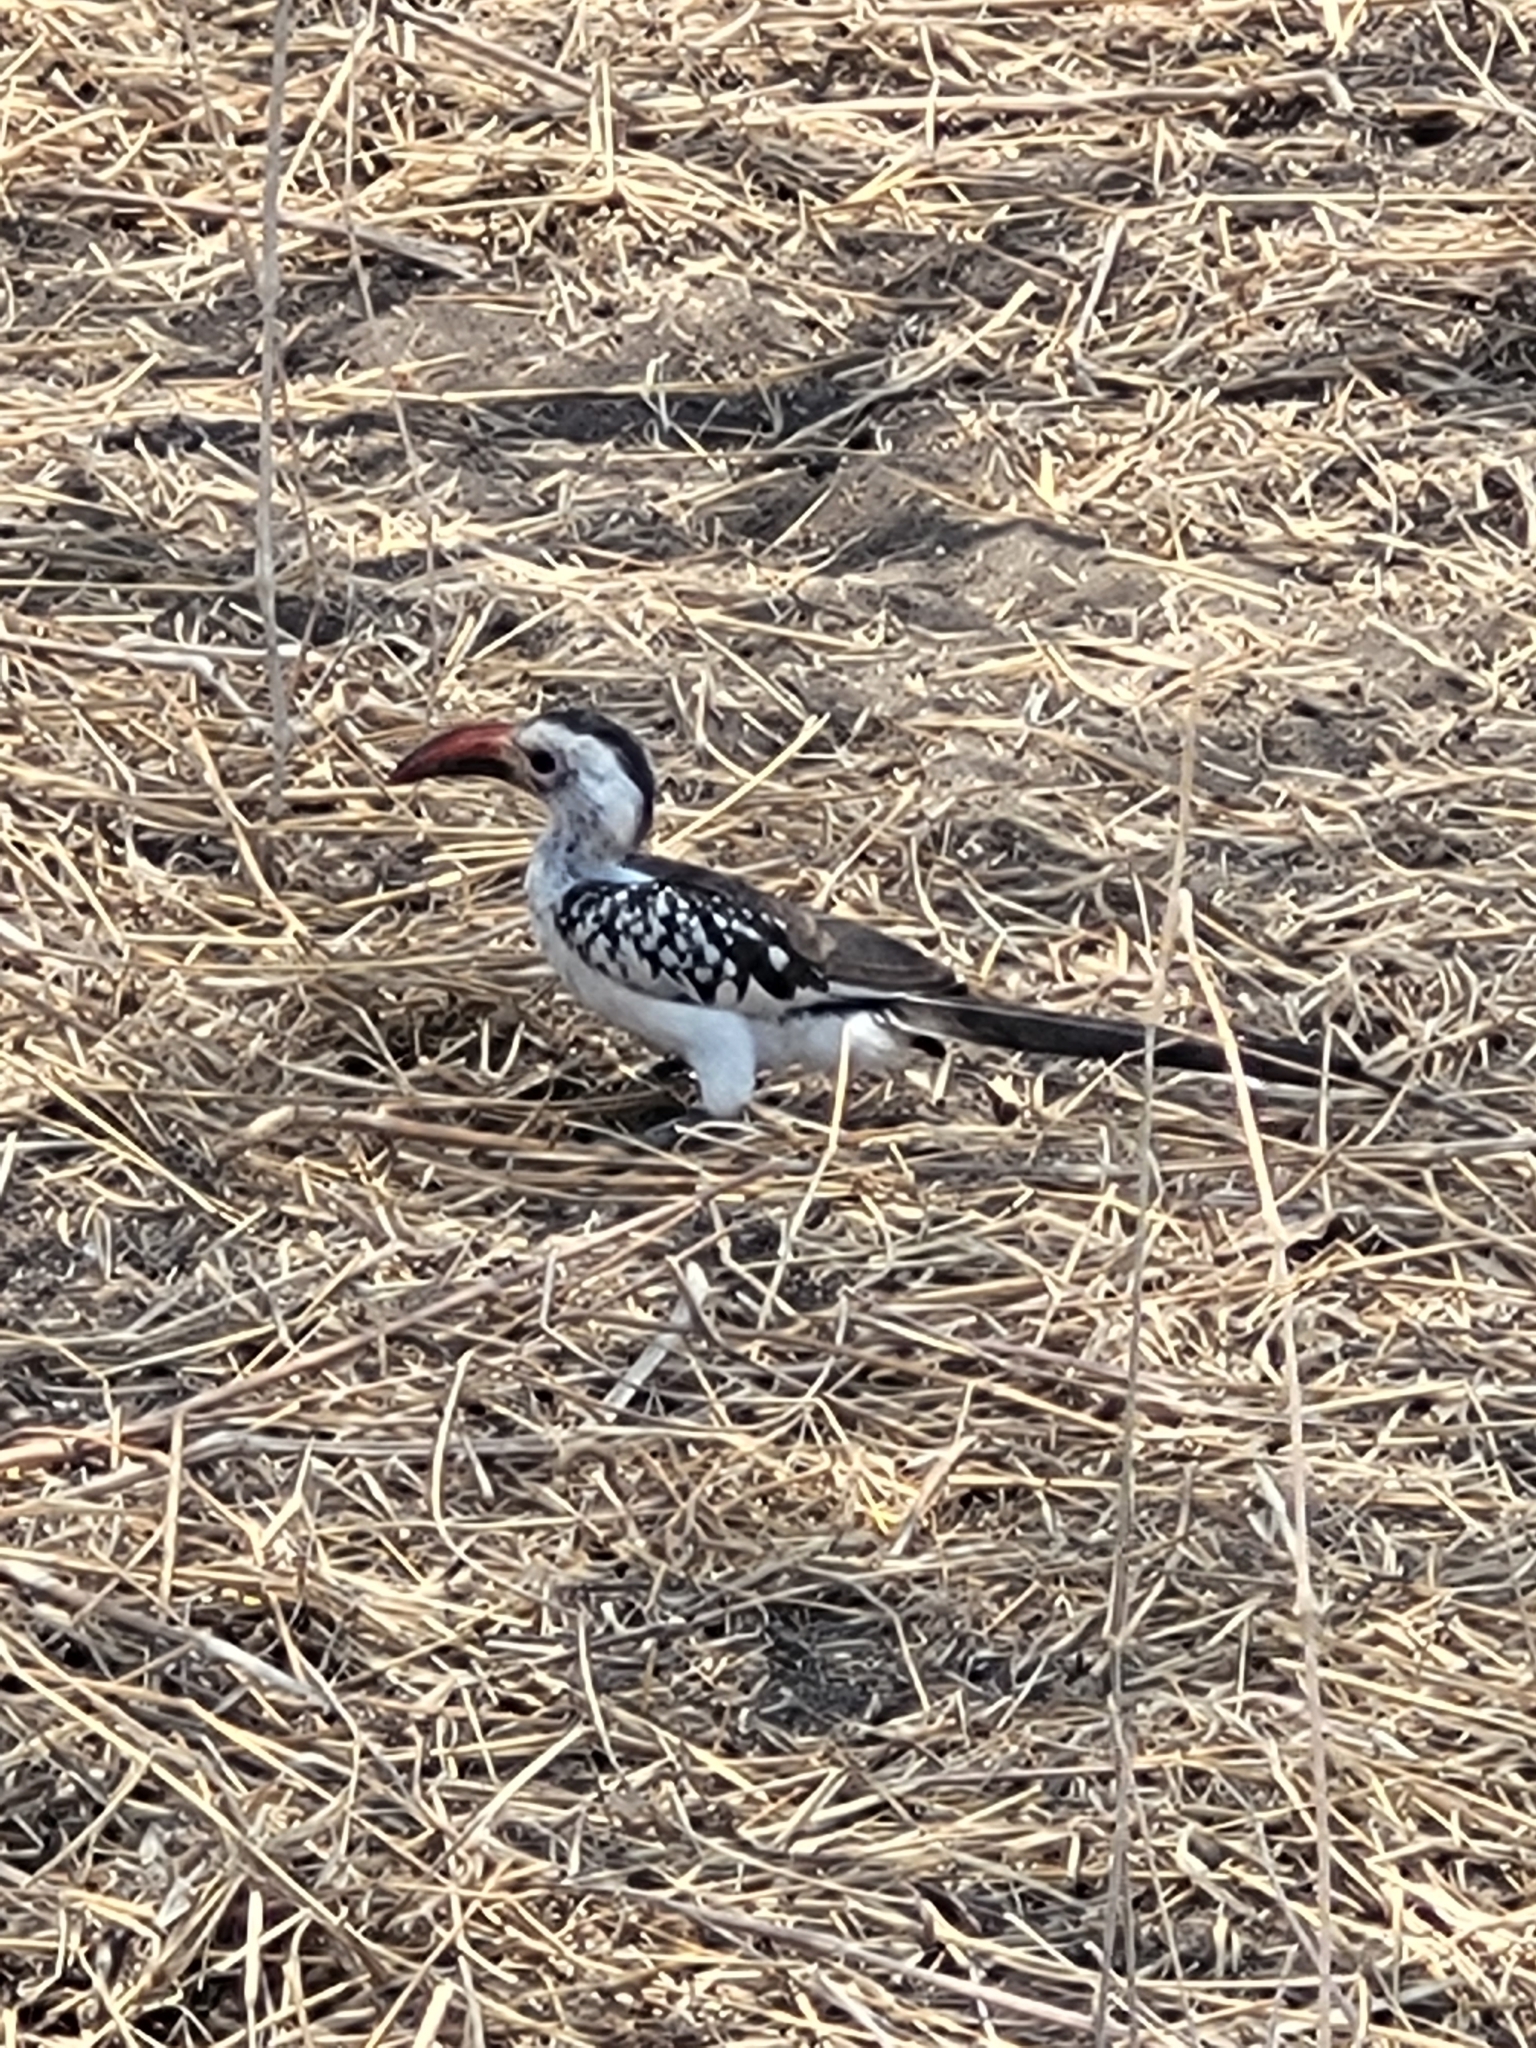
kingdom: Animalia
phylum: Chordata
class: Aves
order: Bucerotiformes
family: Bucerotidae
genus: Tockus
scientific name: Tockus erythrorhynchus
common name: Northern red-billed hornbill
